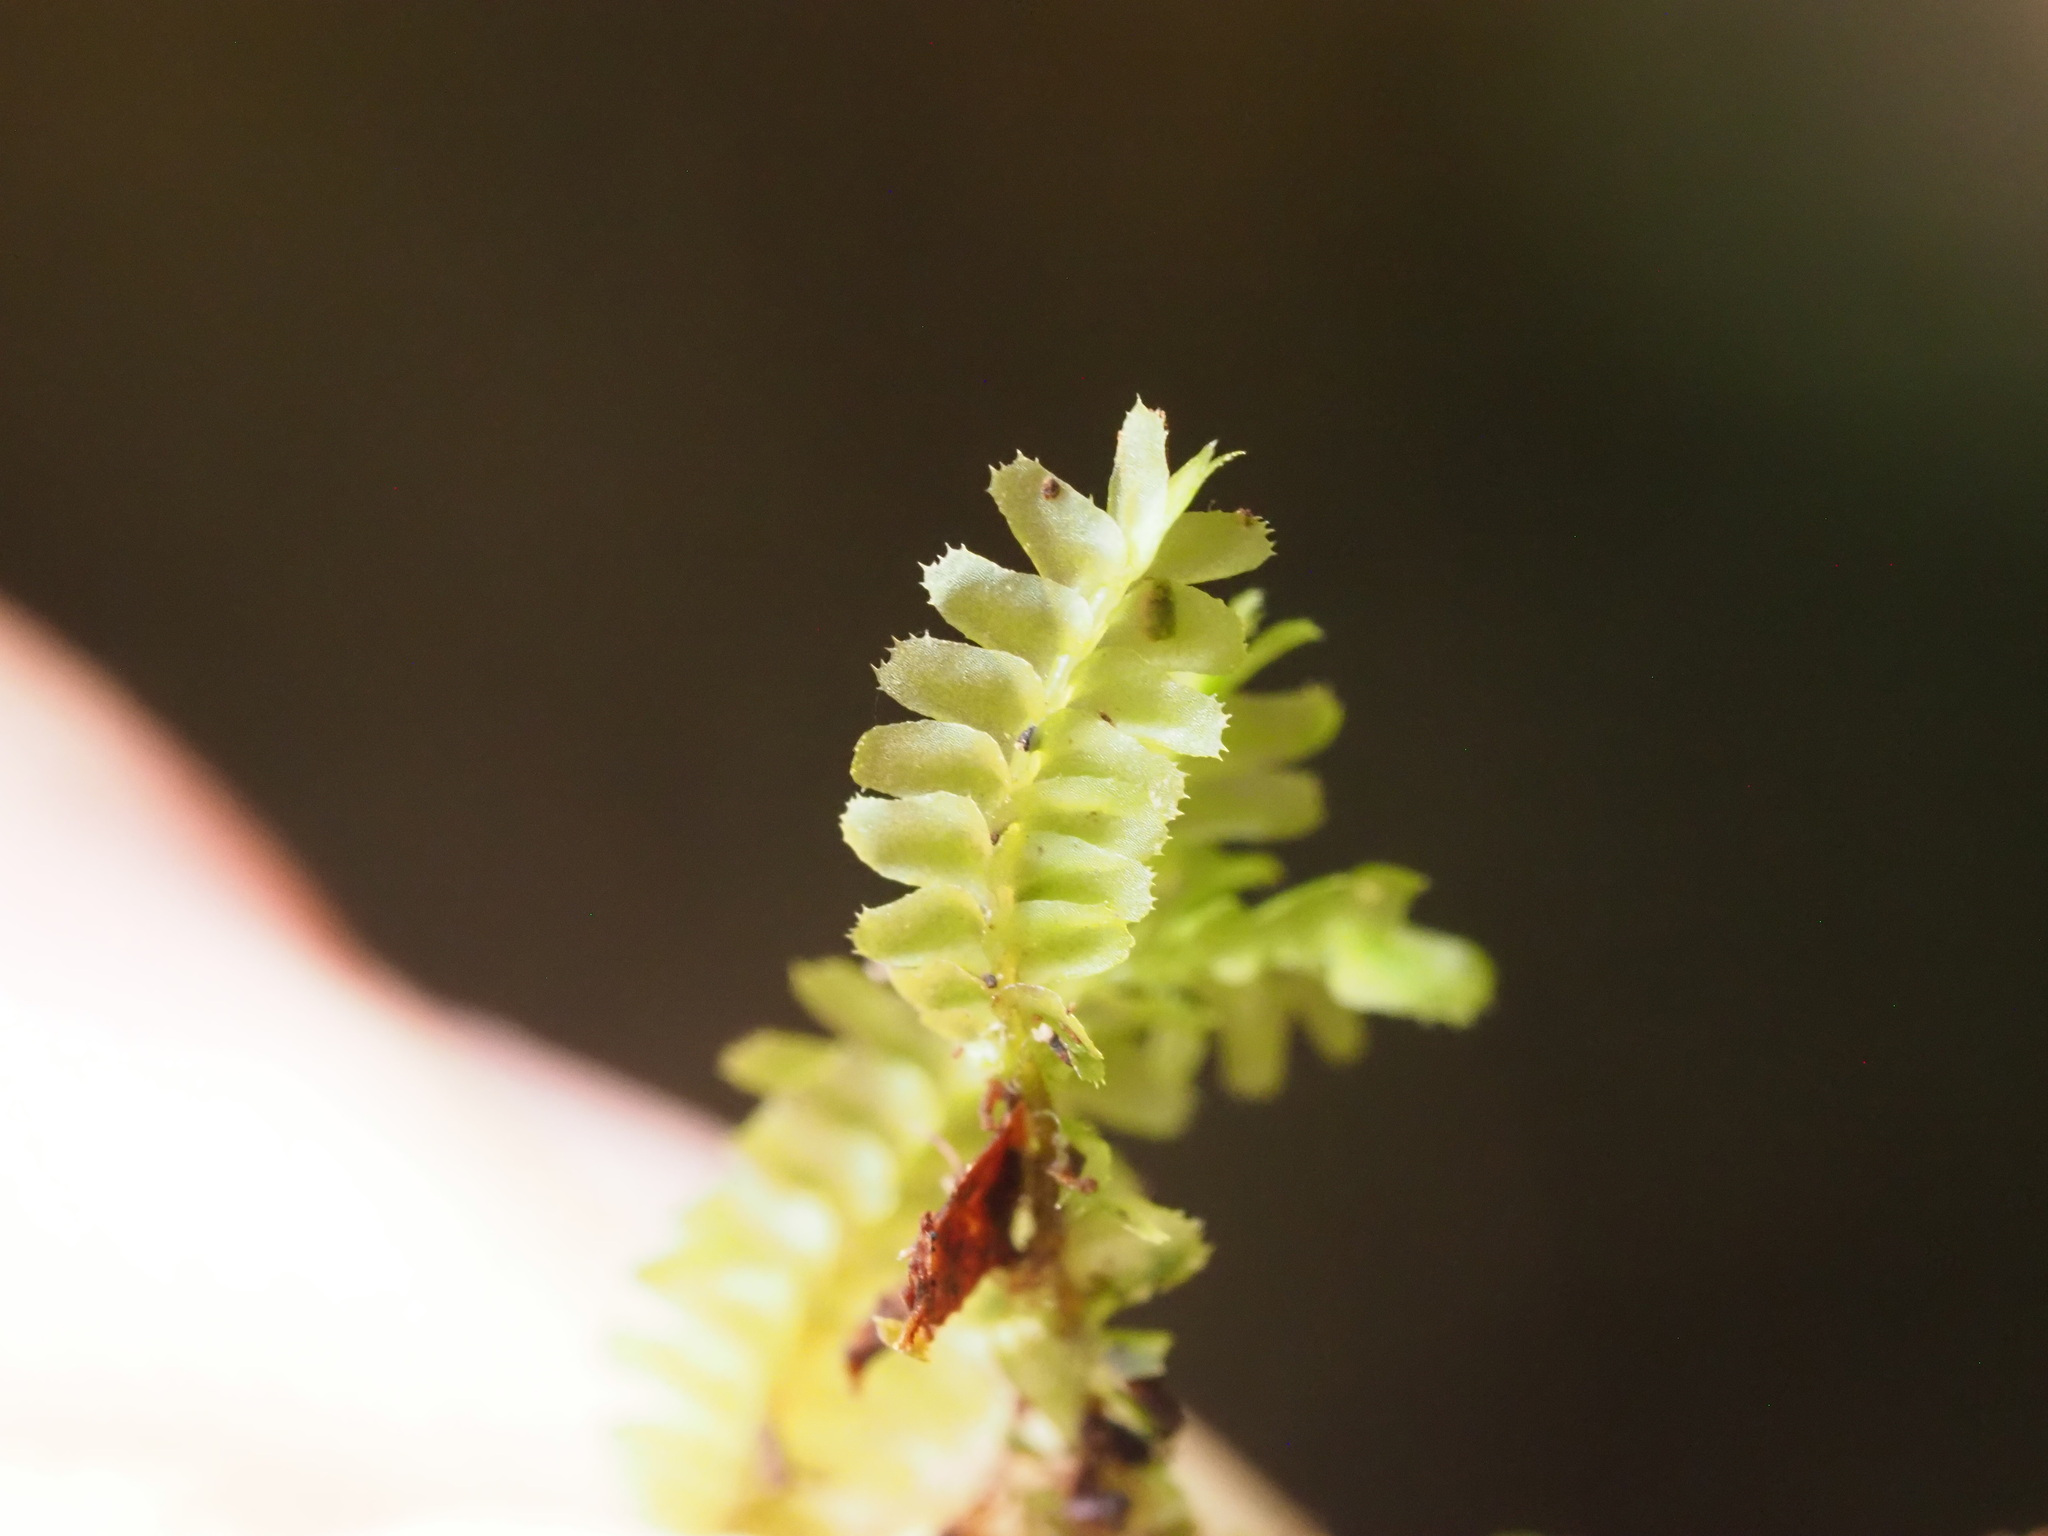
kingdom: Plantae
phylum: Marchantiophyta
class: Jungermanniopsida
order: Jungermanniales
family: Plagiochilaceae
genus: Plagiochila
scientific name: Plagiochila deflexa
